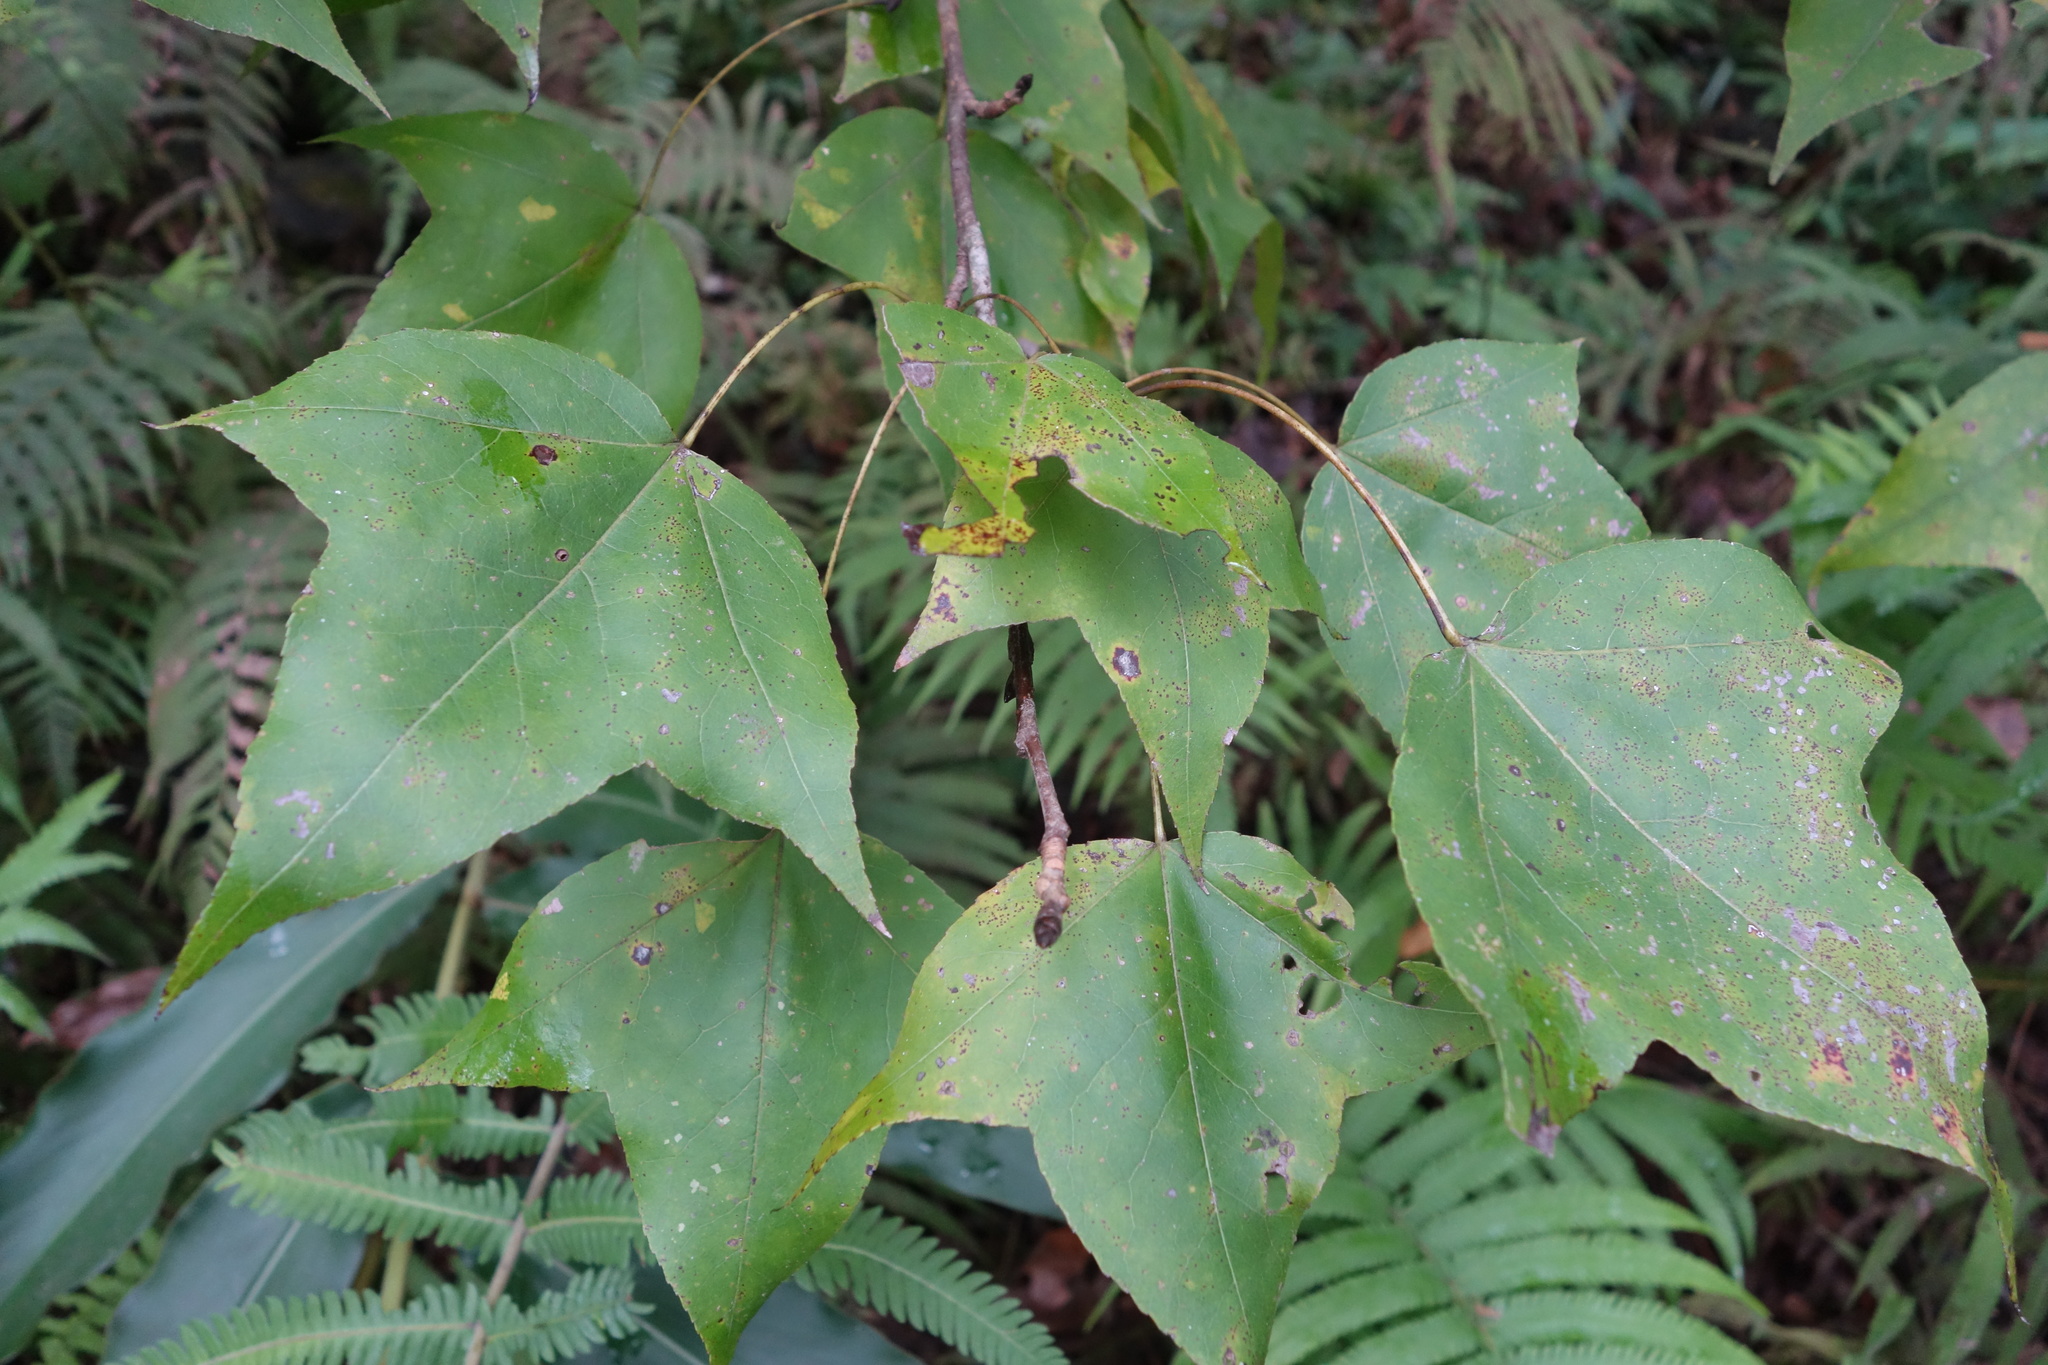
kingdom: Plantae
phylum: Tracheophyta
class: Magnoliopsida
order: Saxifragales
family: Altingiaceae
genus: Liquidambar
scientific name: Liquidambar formosana
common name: Chinese sweet gum
